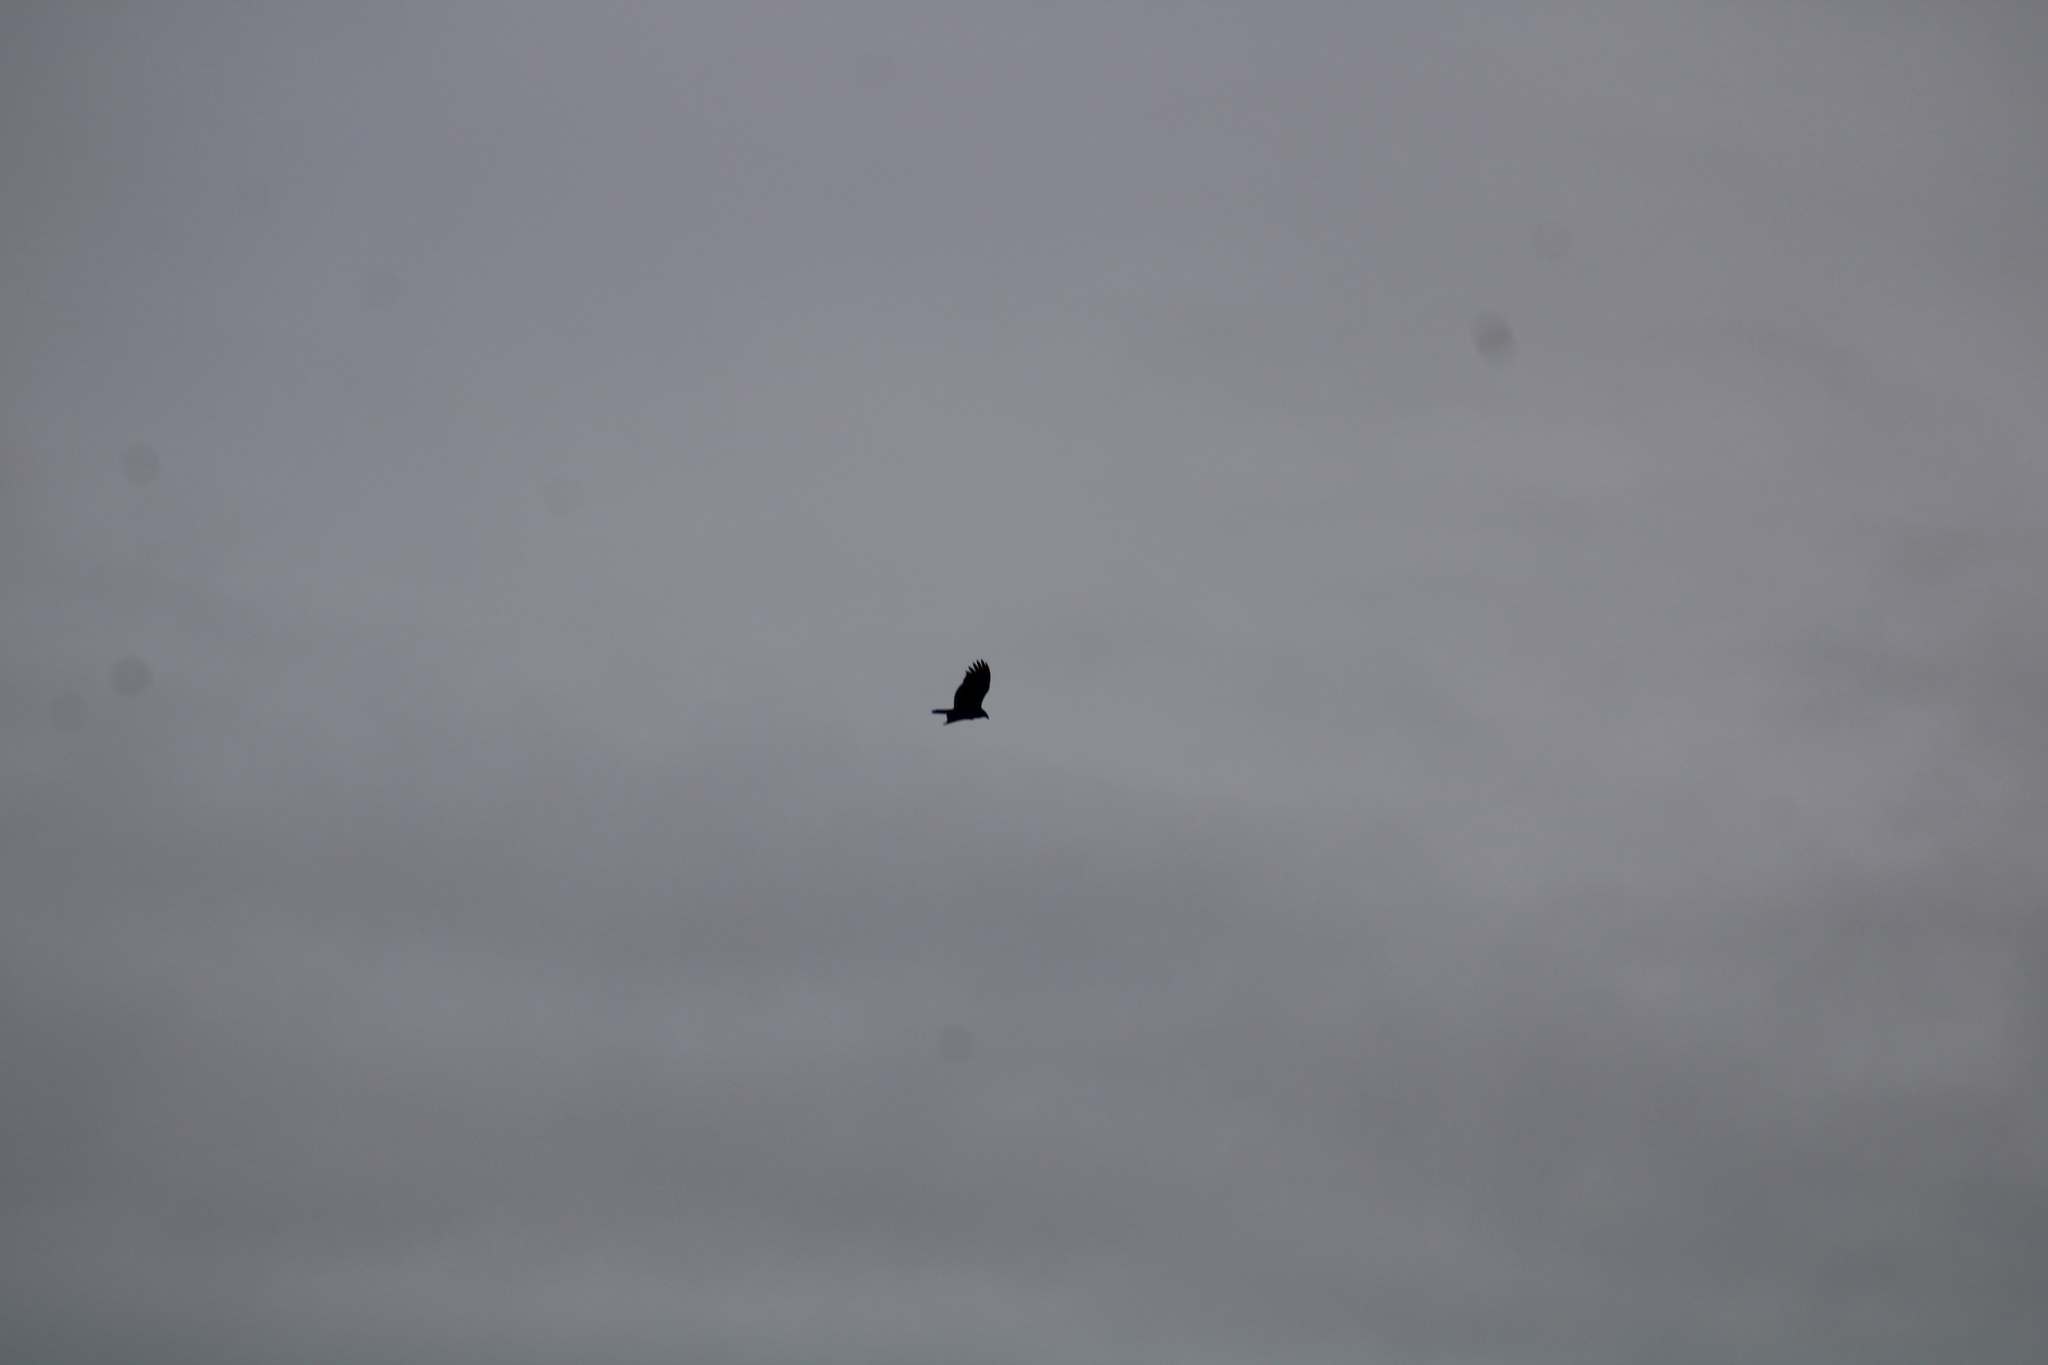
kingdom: Animalia
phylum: Chordata
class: Aves
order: Accipitriformes
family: Cathartidae
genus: Cathartes
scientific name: Cathartes aura
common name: Turkey vulture
